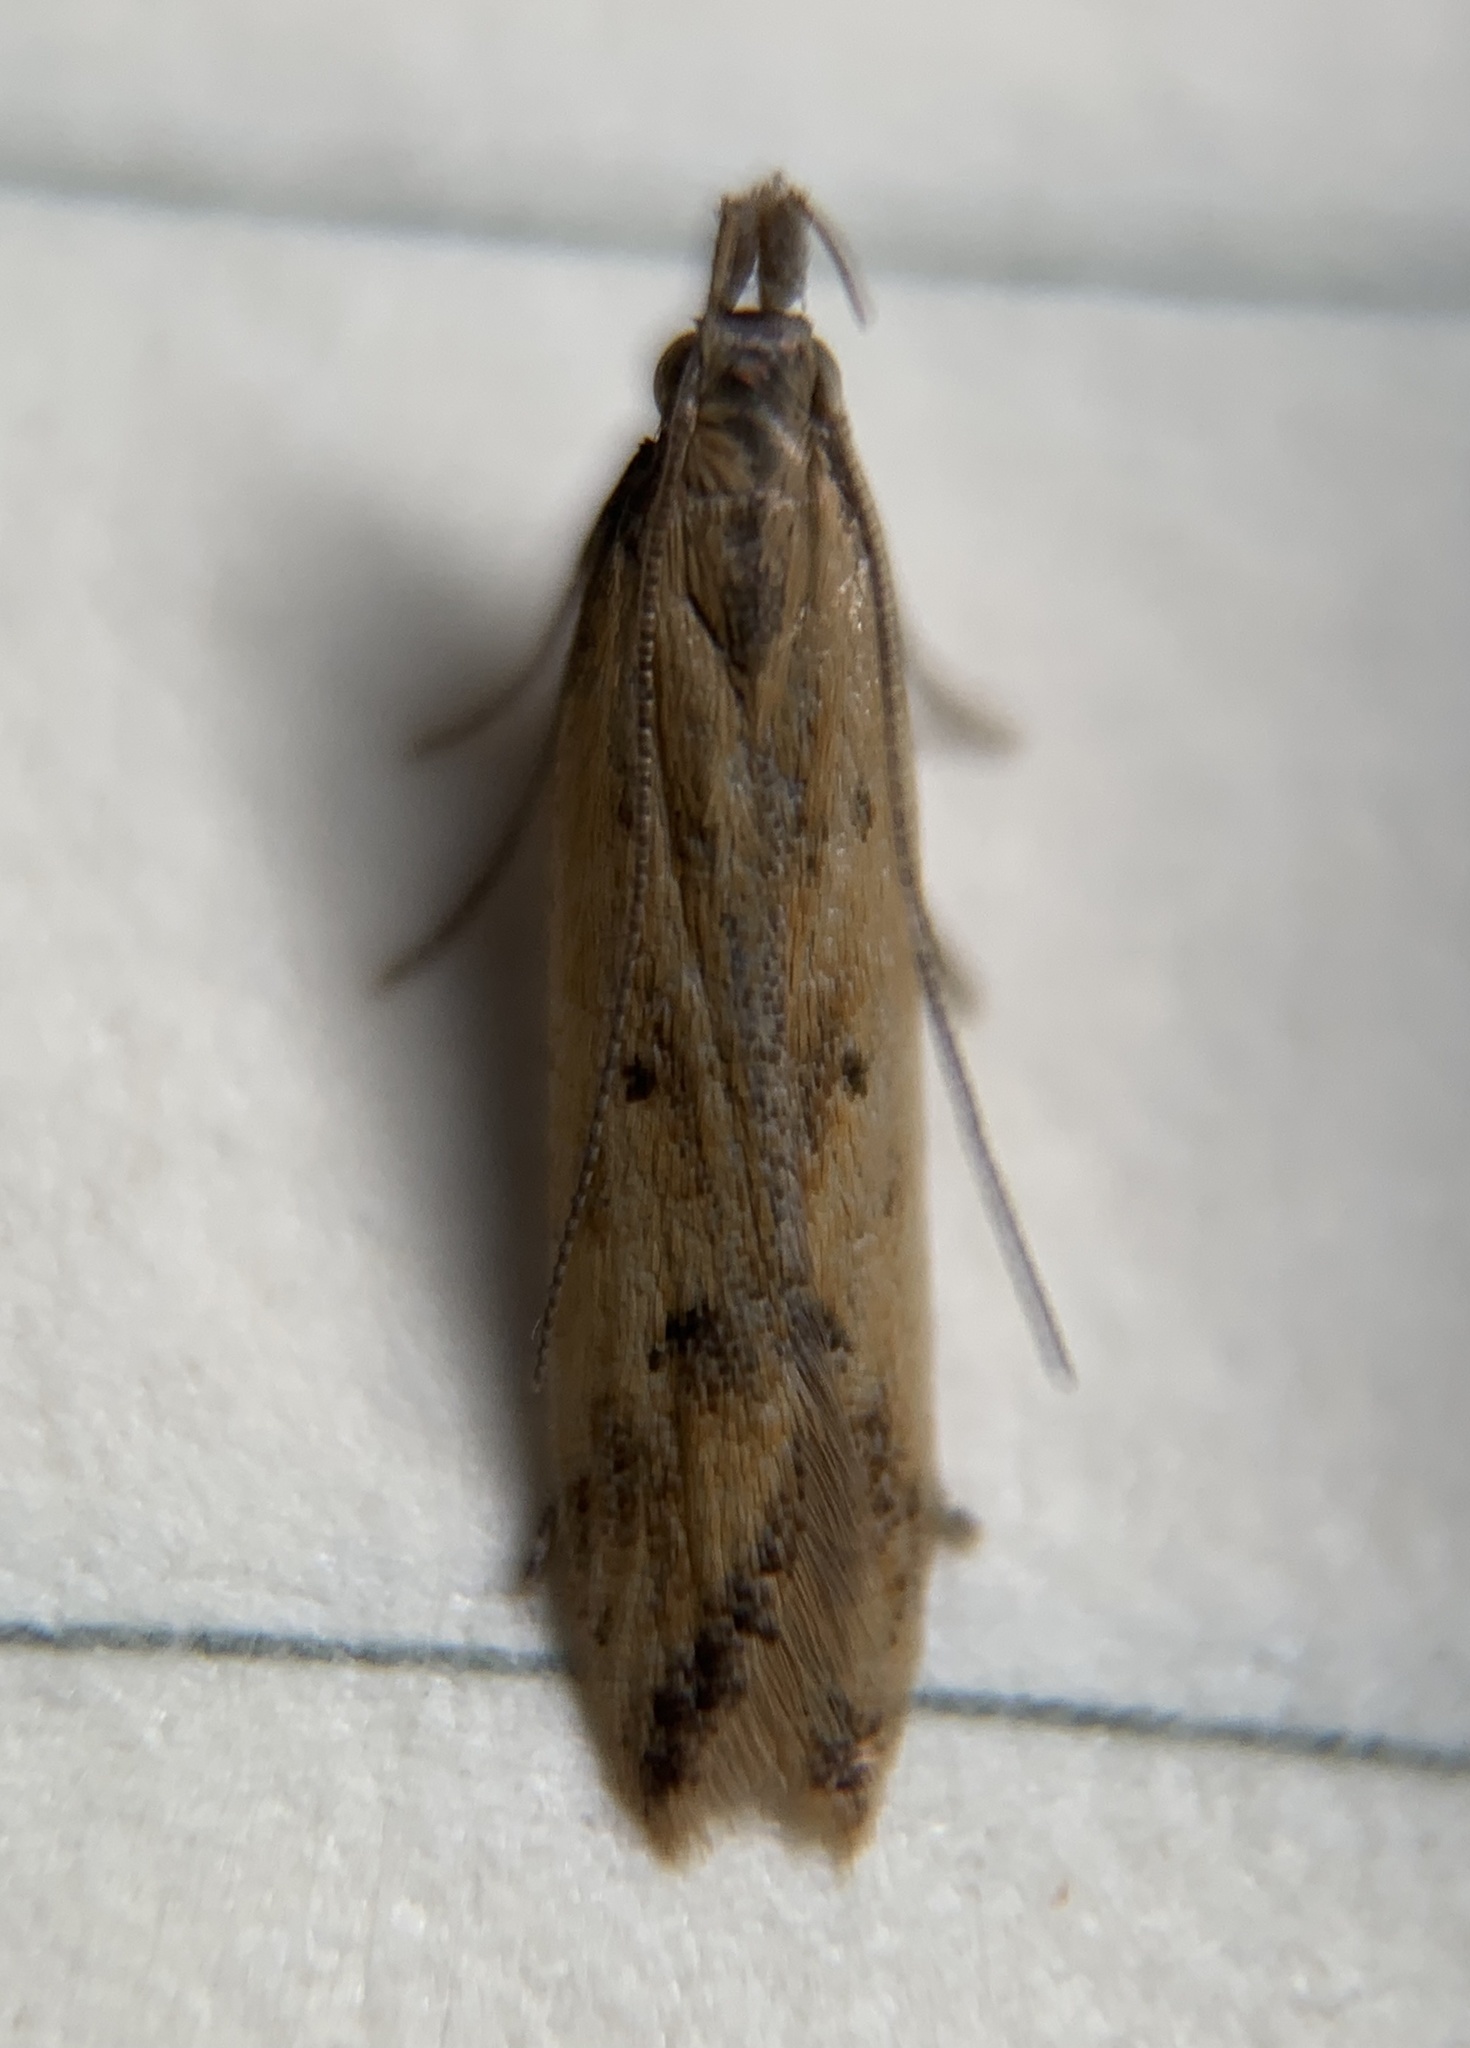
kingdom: Animalia
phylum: Arthropoda
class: Insecta
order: Lepidoptera
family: Gelechiidae
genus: Dichomeris
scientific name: Dichomeris acuminatus
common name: Alfalfa leaf tier
